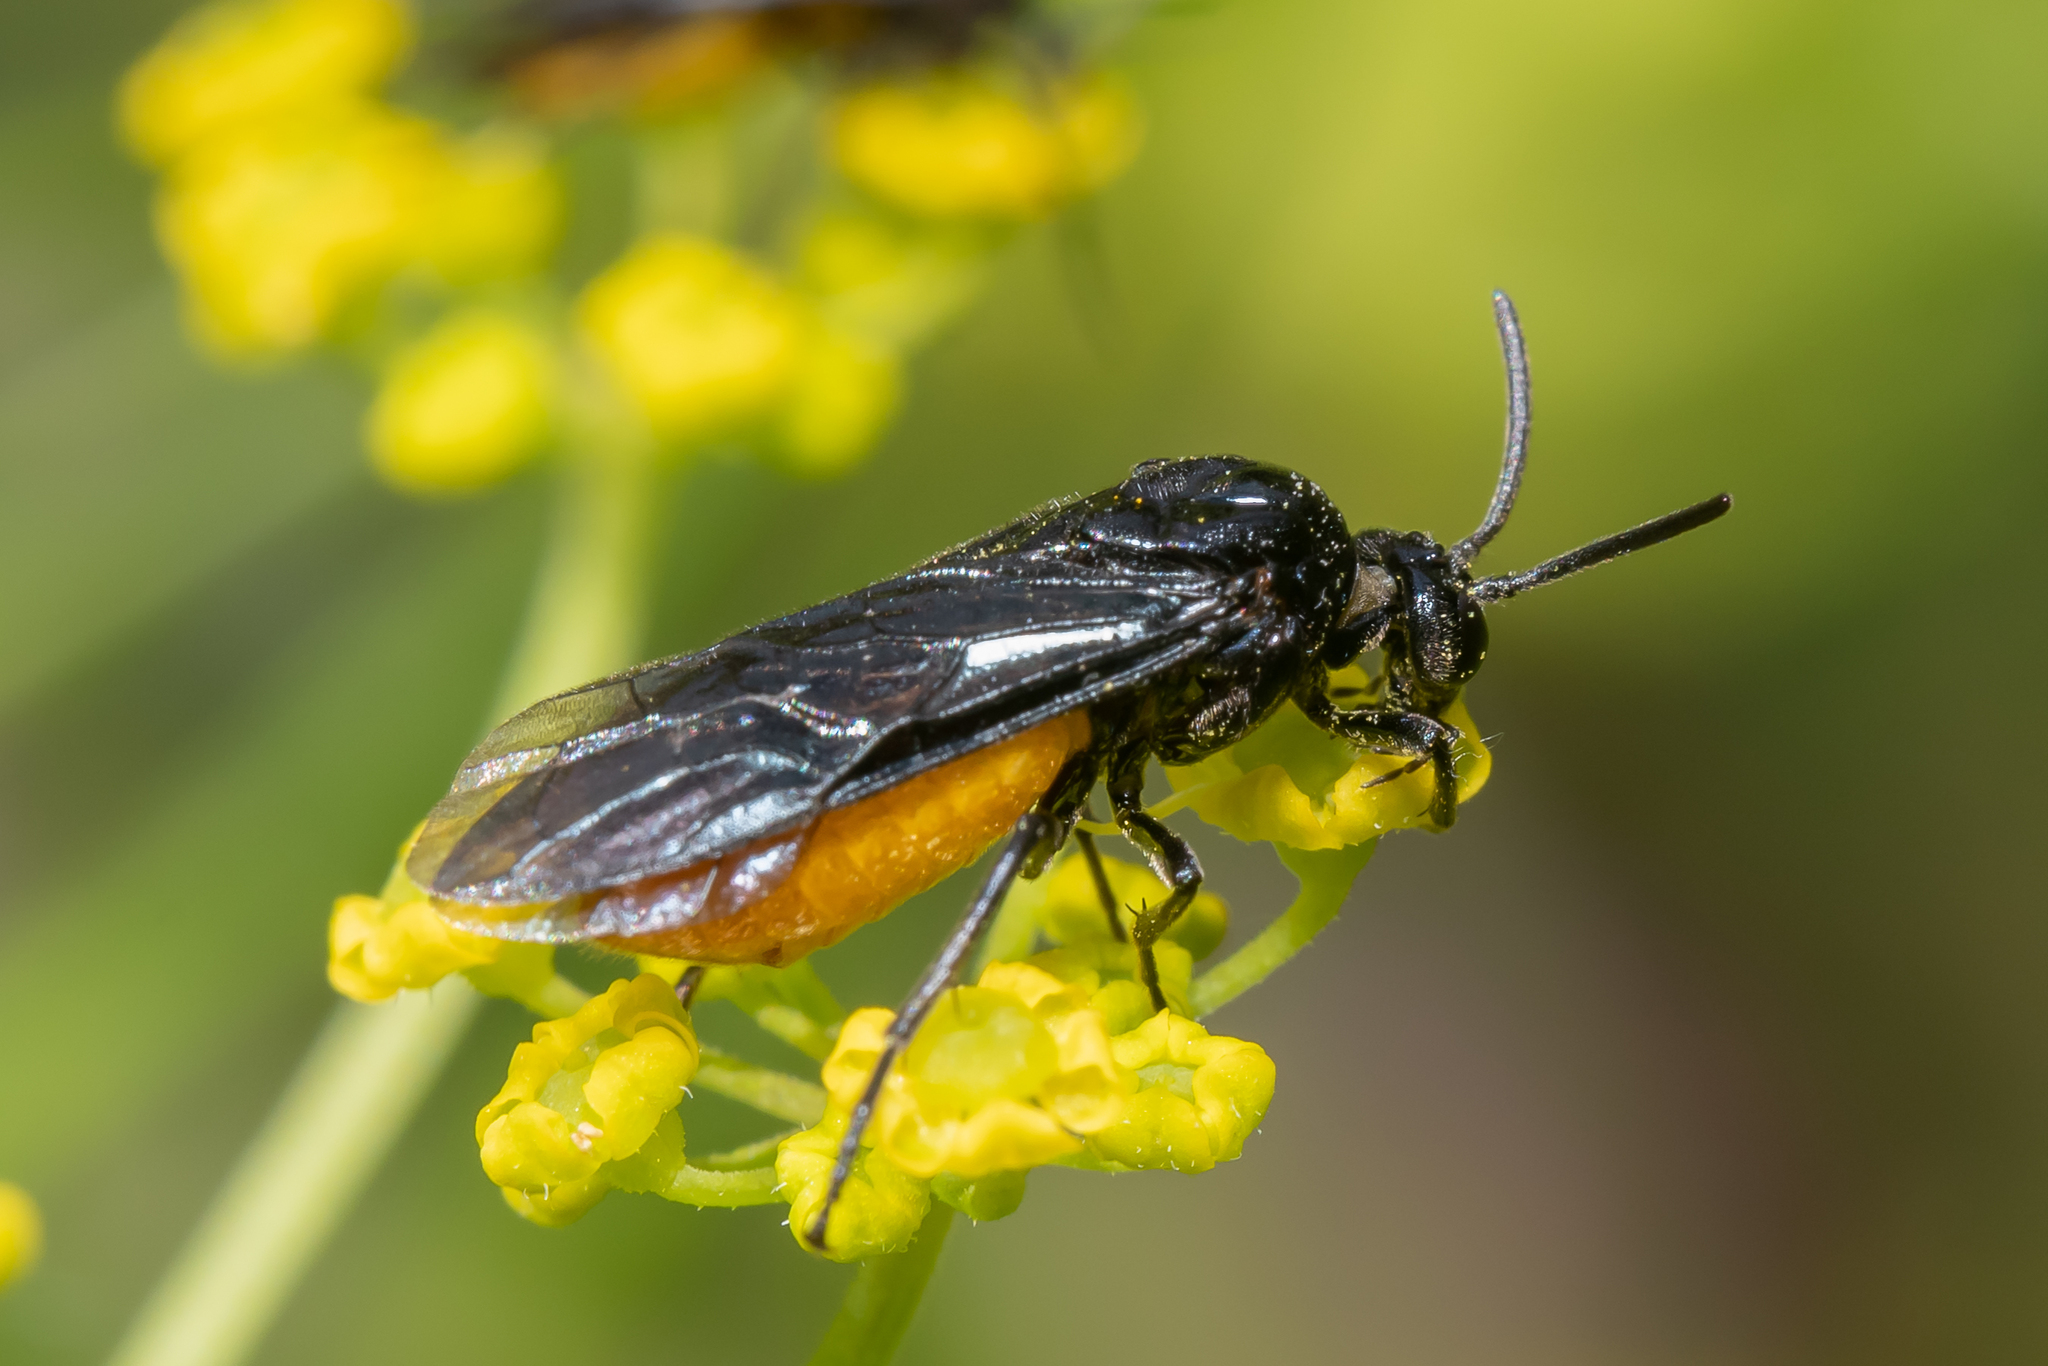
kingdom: Animalia
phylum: Arthropoda
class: Insecta
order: Hymenoptera
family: Argidae
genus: Arge
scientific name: Arge pagana
